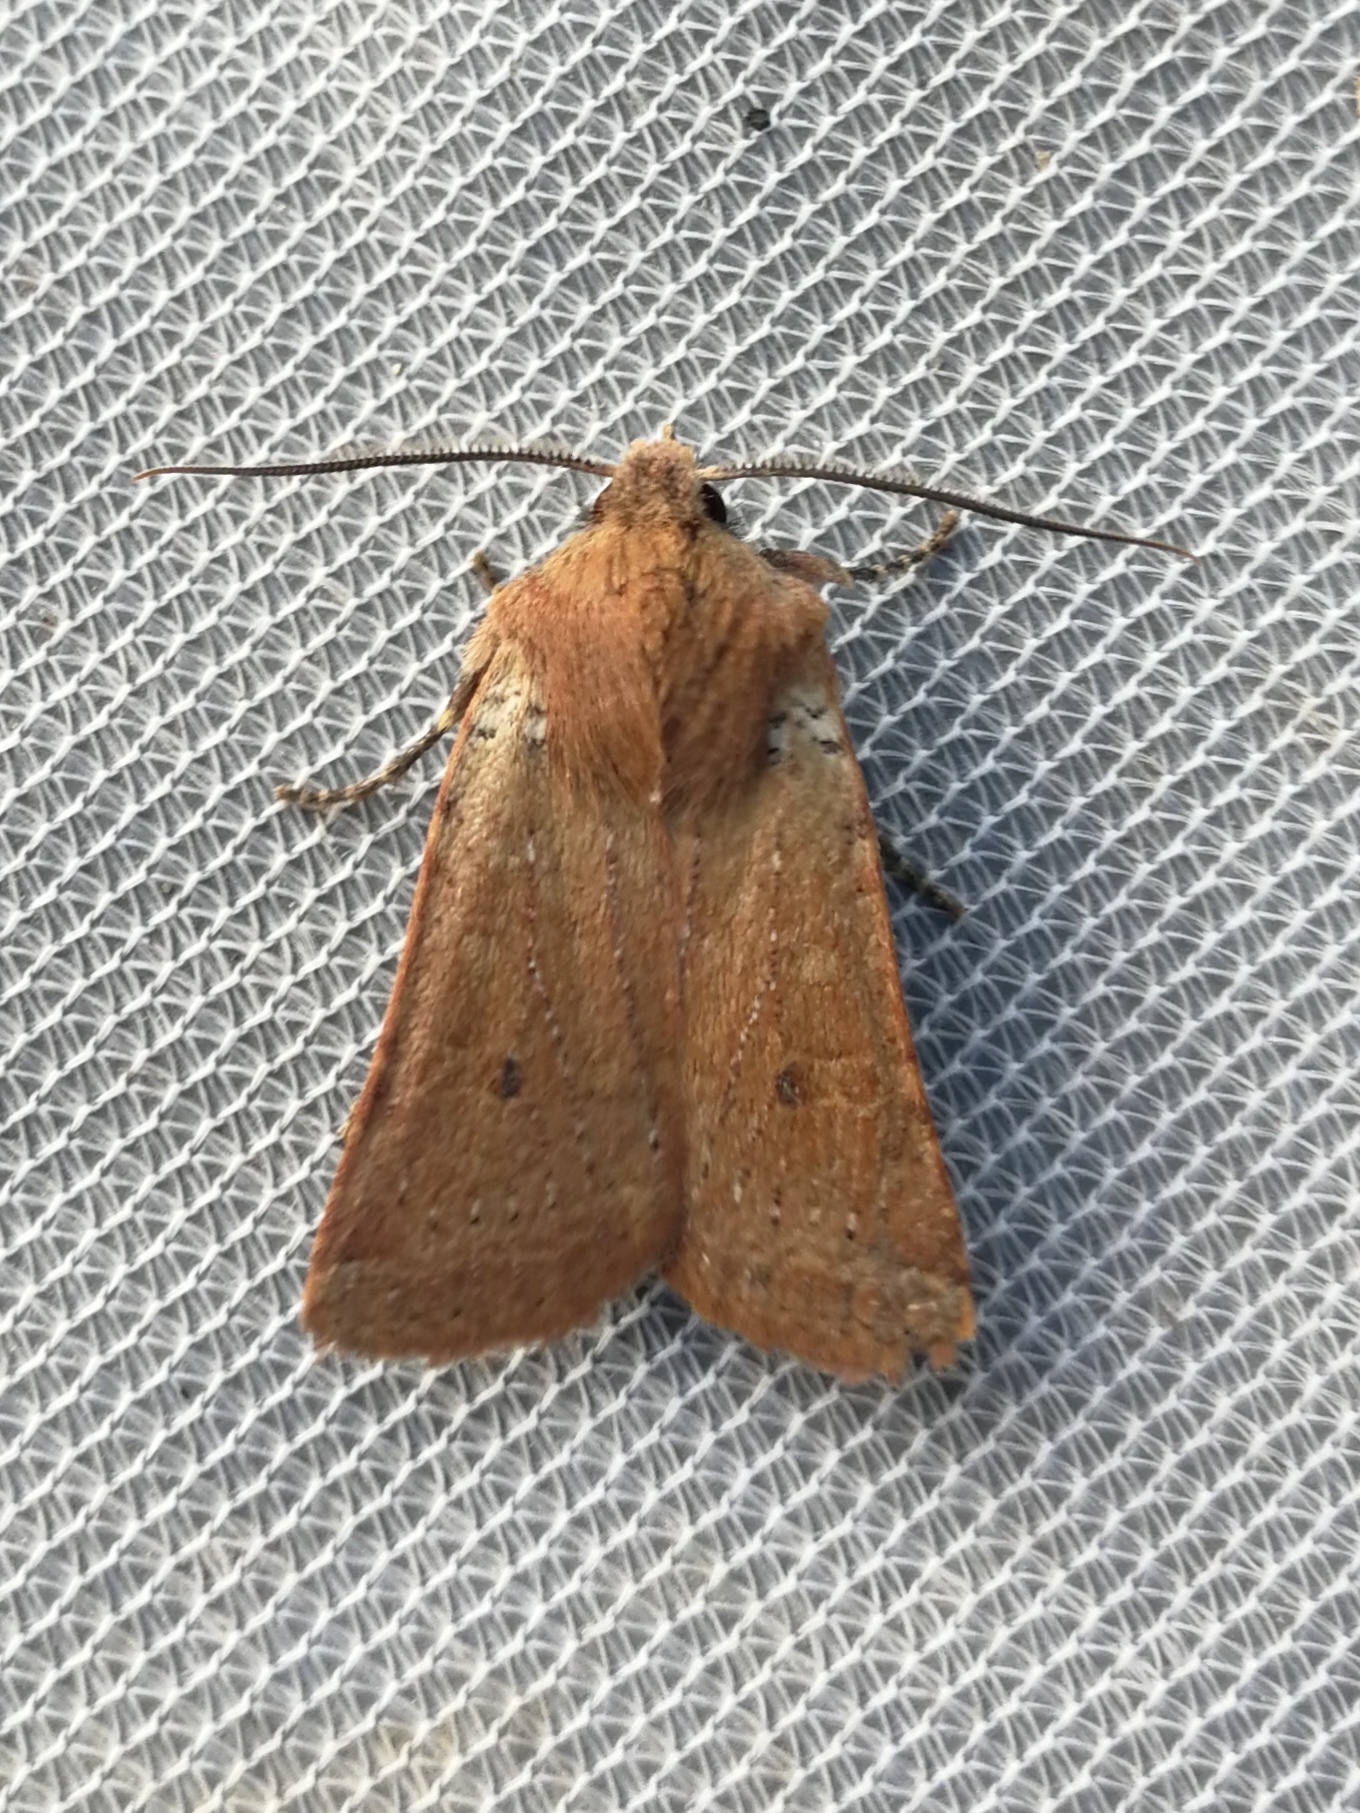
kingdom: Animalia
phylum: Arthropoda
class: Insecta
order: Lepidoptera
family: Noctuidae
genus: Agrochola
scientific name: Agrochola ruticilla
